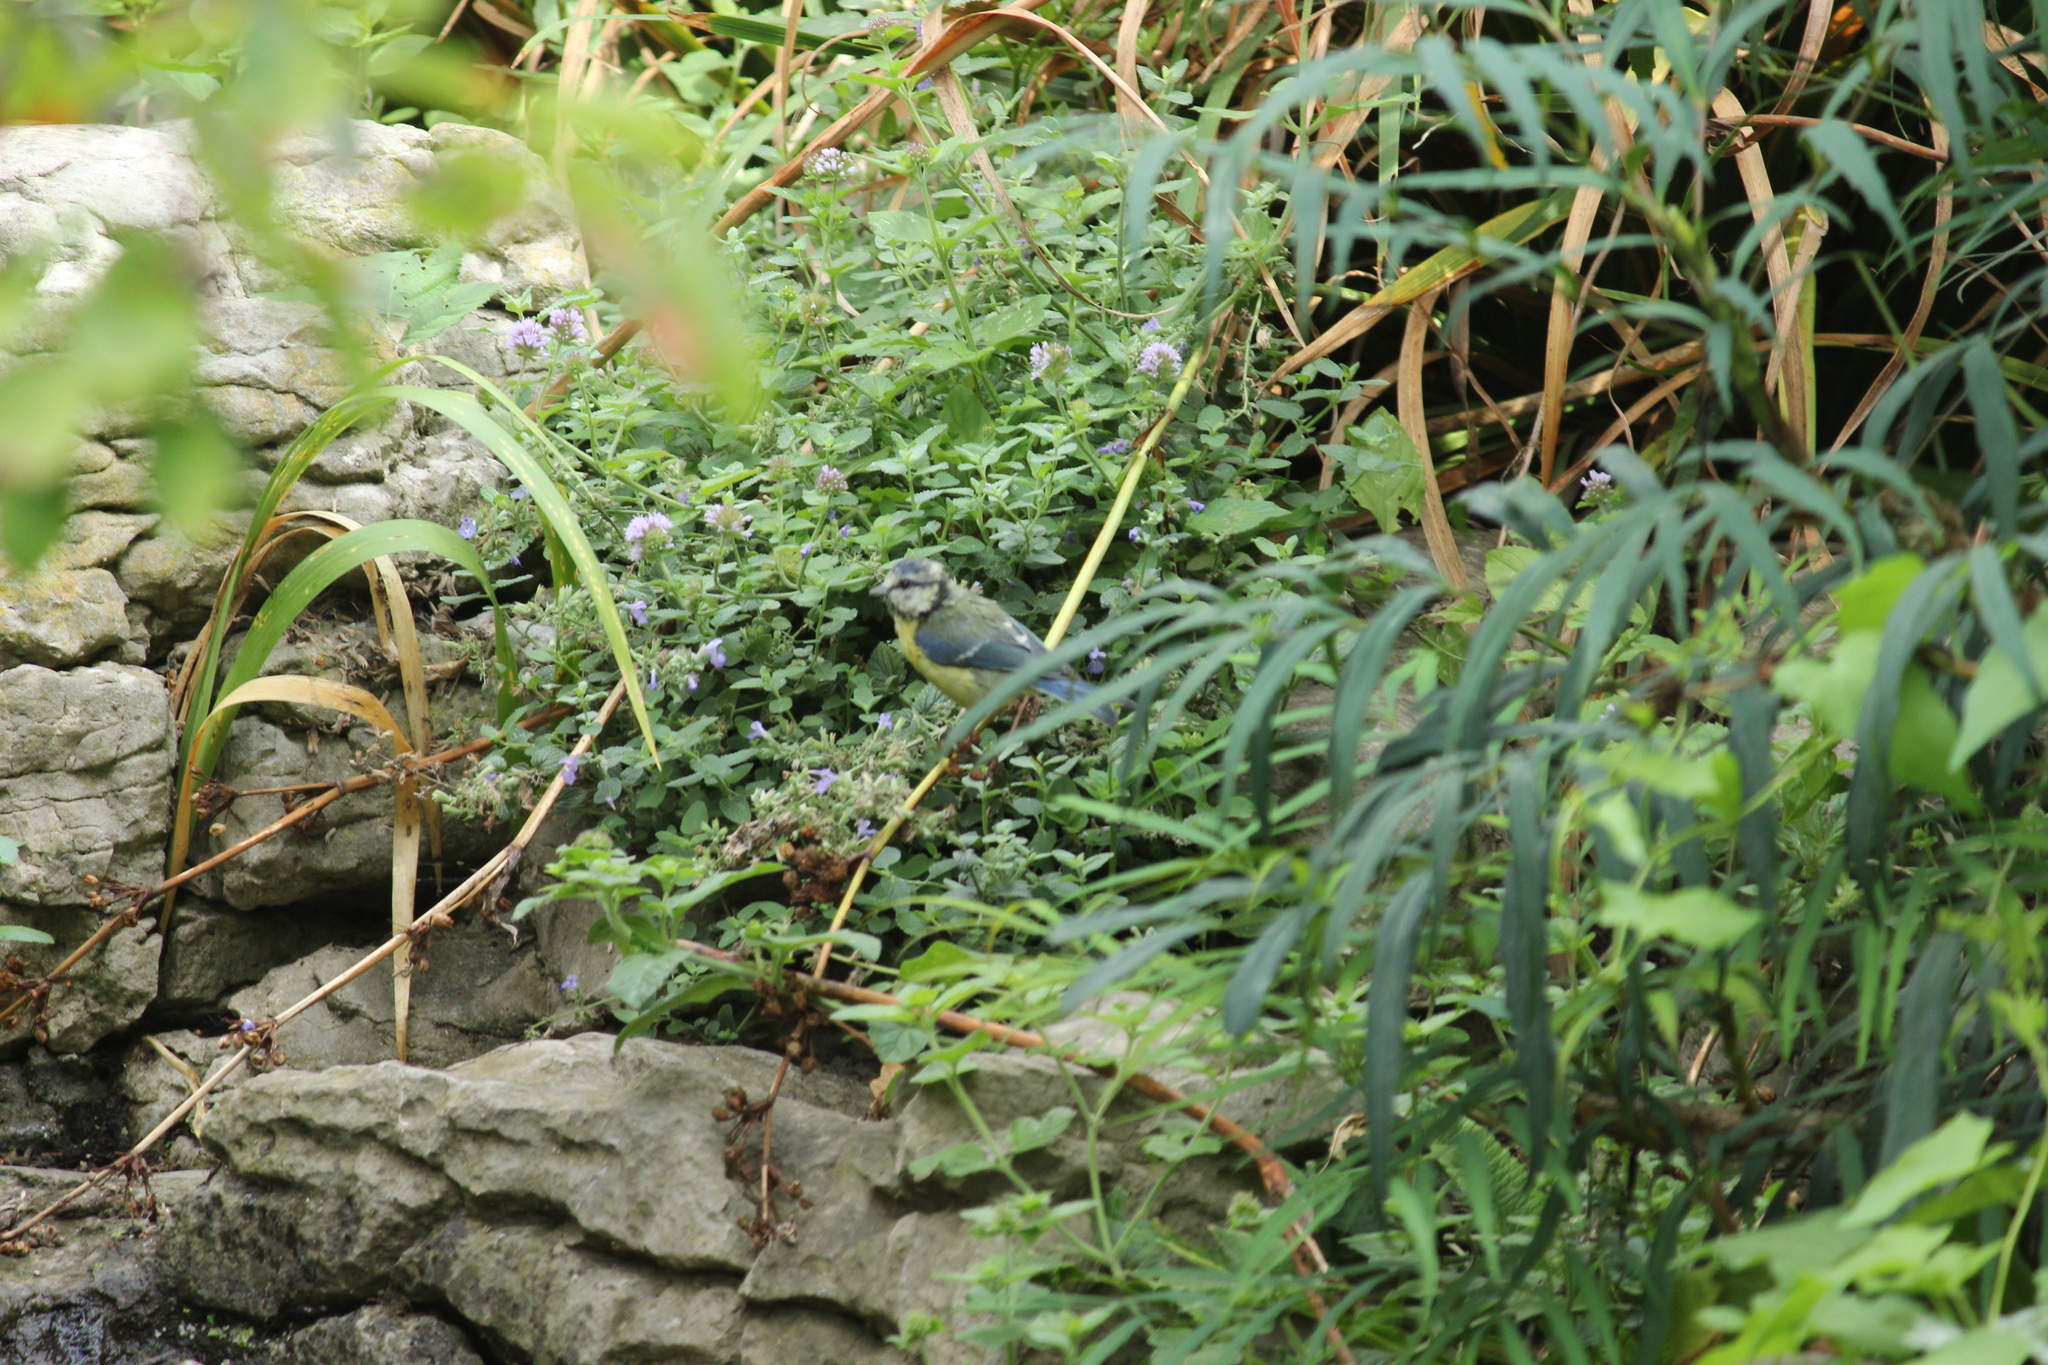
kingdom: Animalia
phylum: Chordata
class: Aves
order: Passeriformes
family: Paridae
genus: Cyanistes
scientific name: Cyanistes caeruleus
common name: Eurasian blue tit
